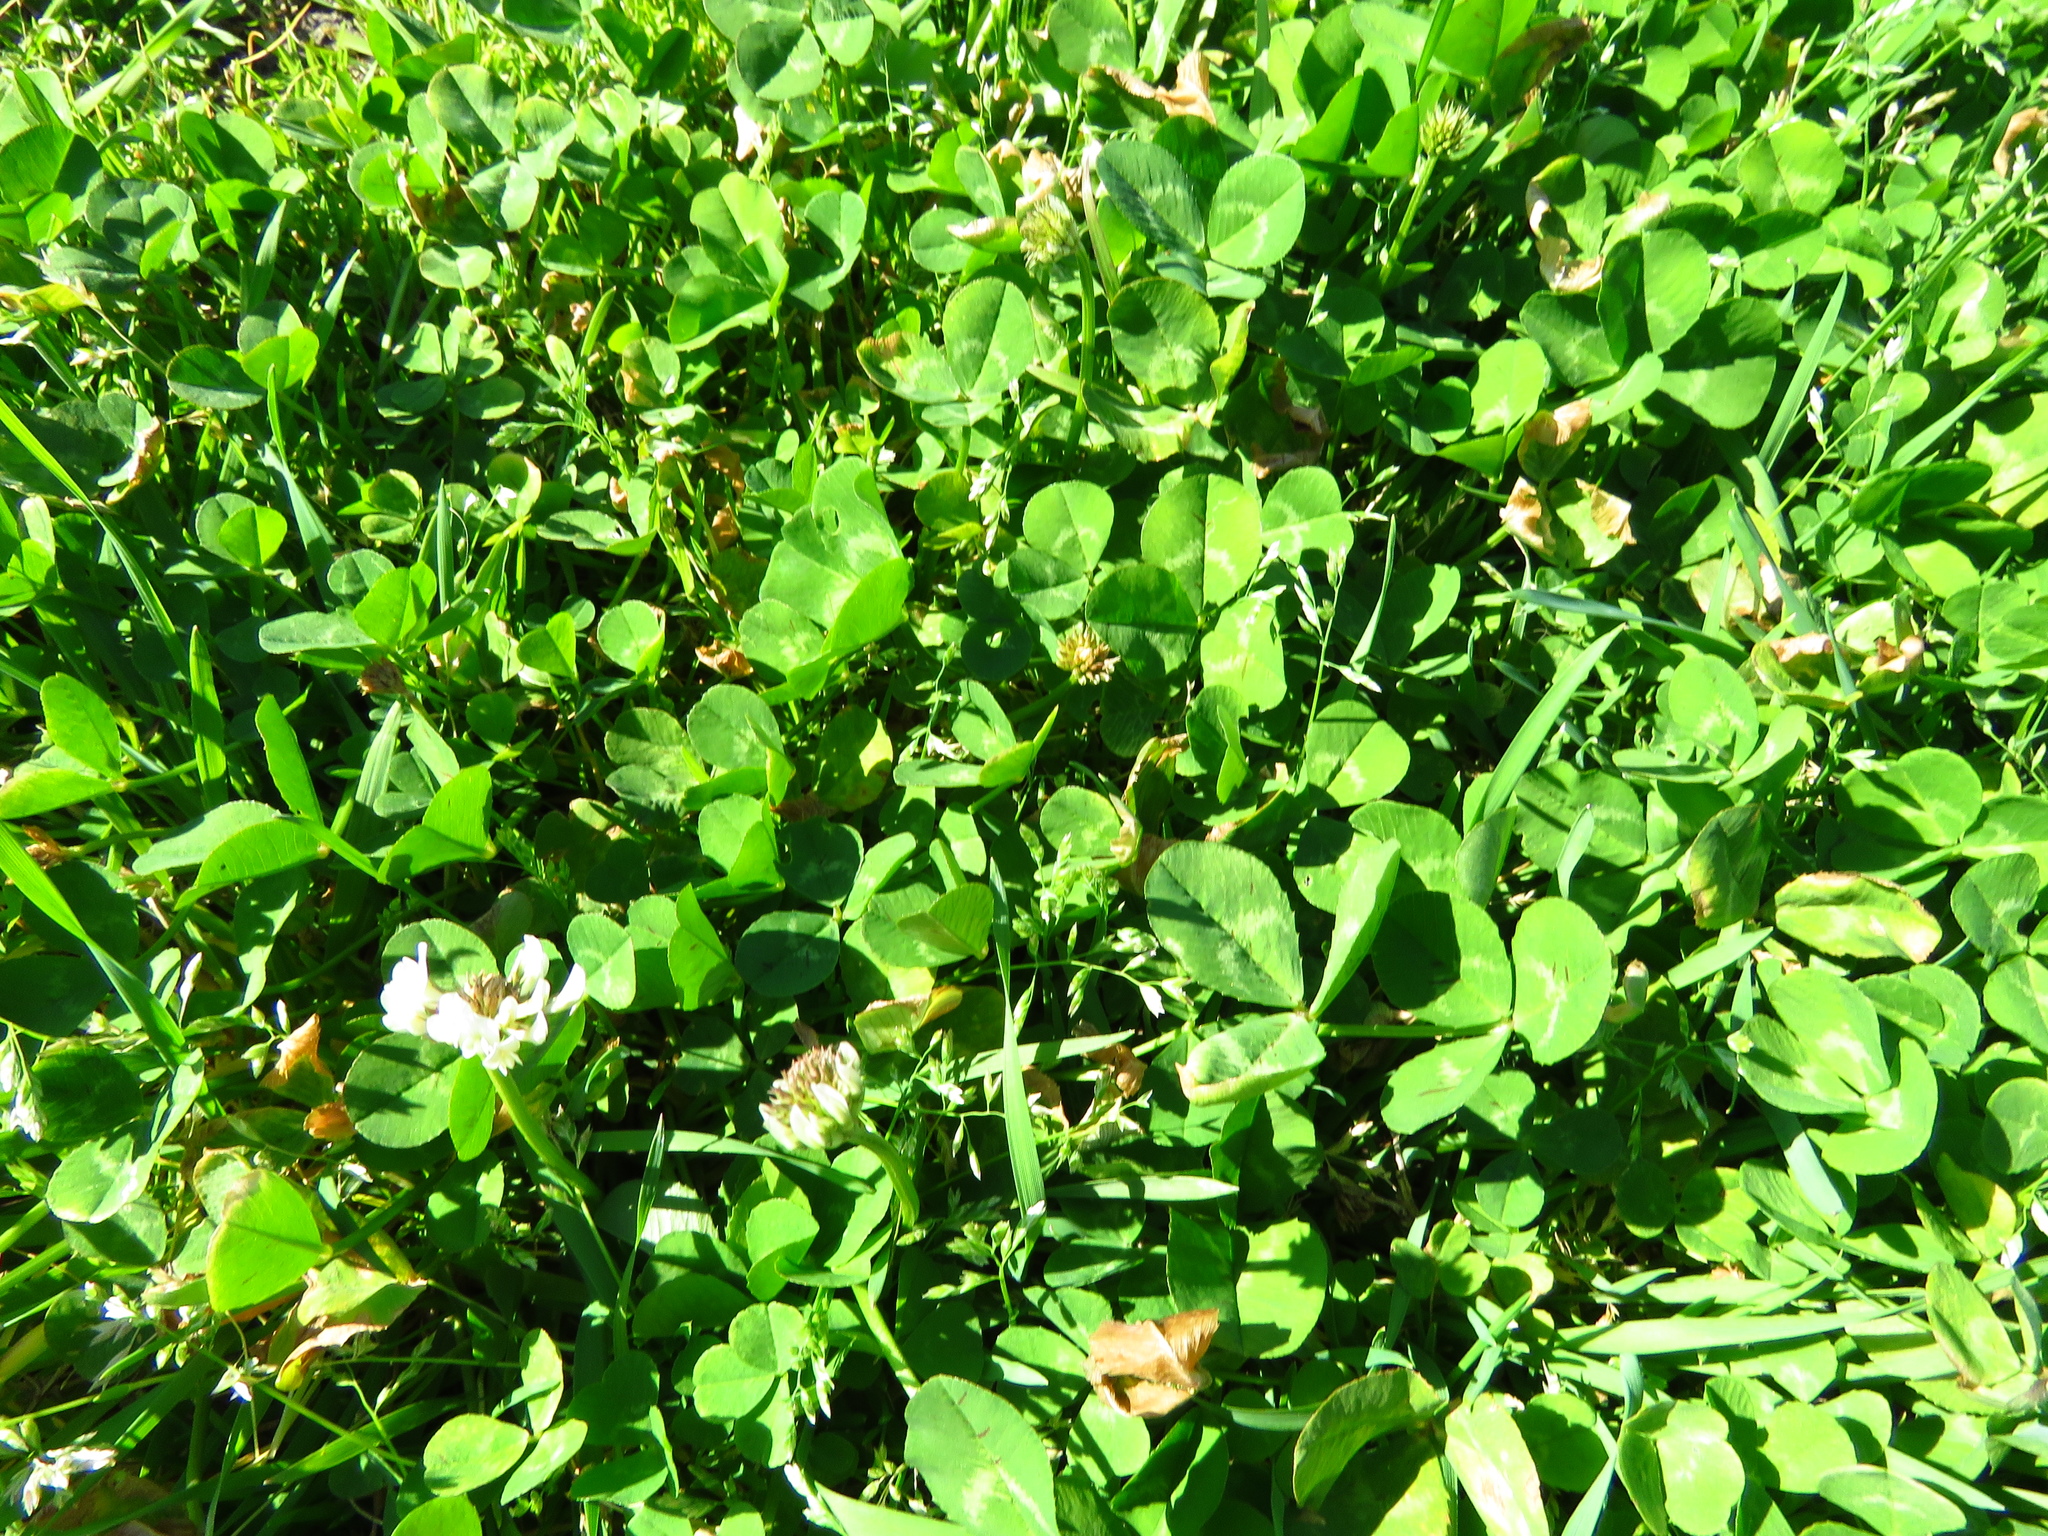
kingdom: Plantae
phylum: Tracheophyta
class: Magnoliopsida
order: Fabales
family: Fabaceae
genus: Trifolium
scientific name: Trifolium repens
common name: White clover
